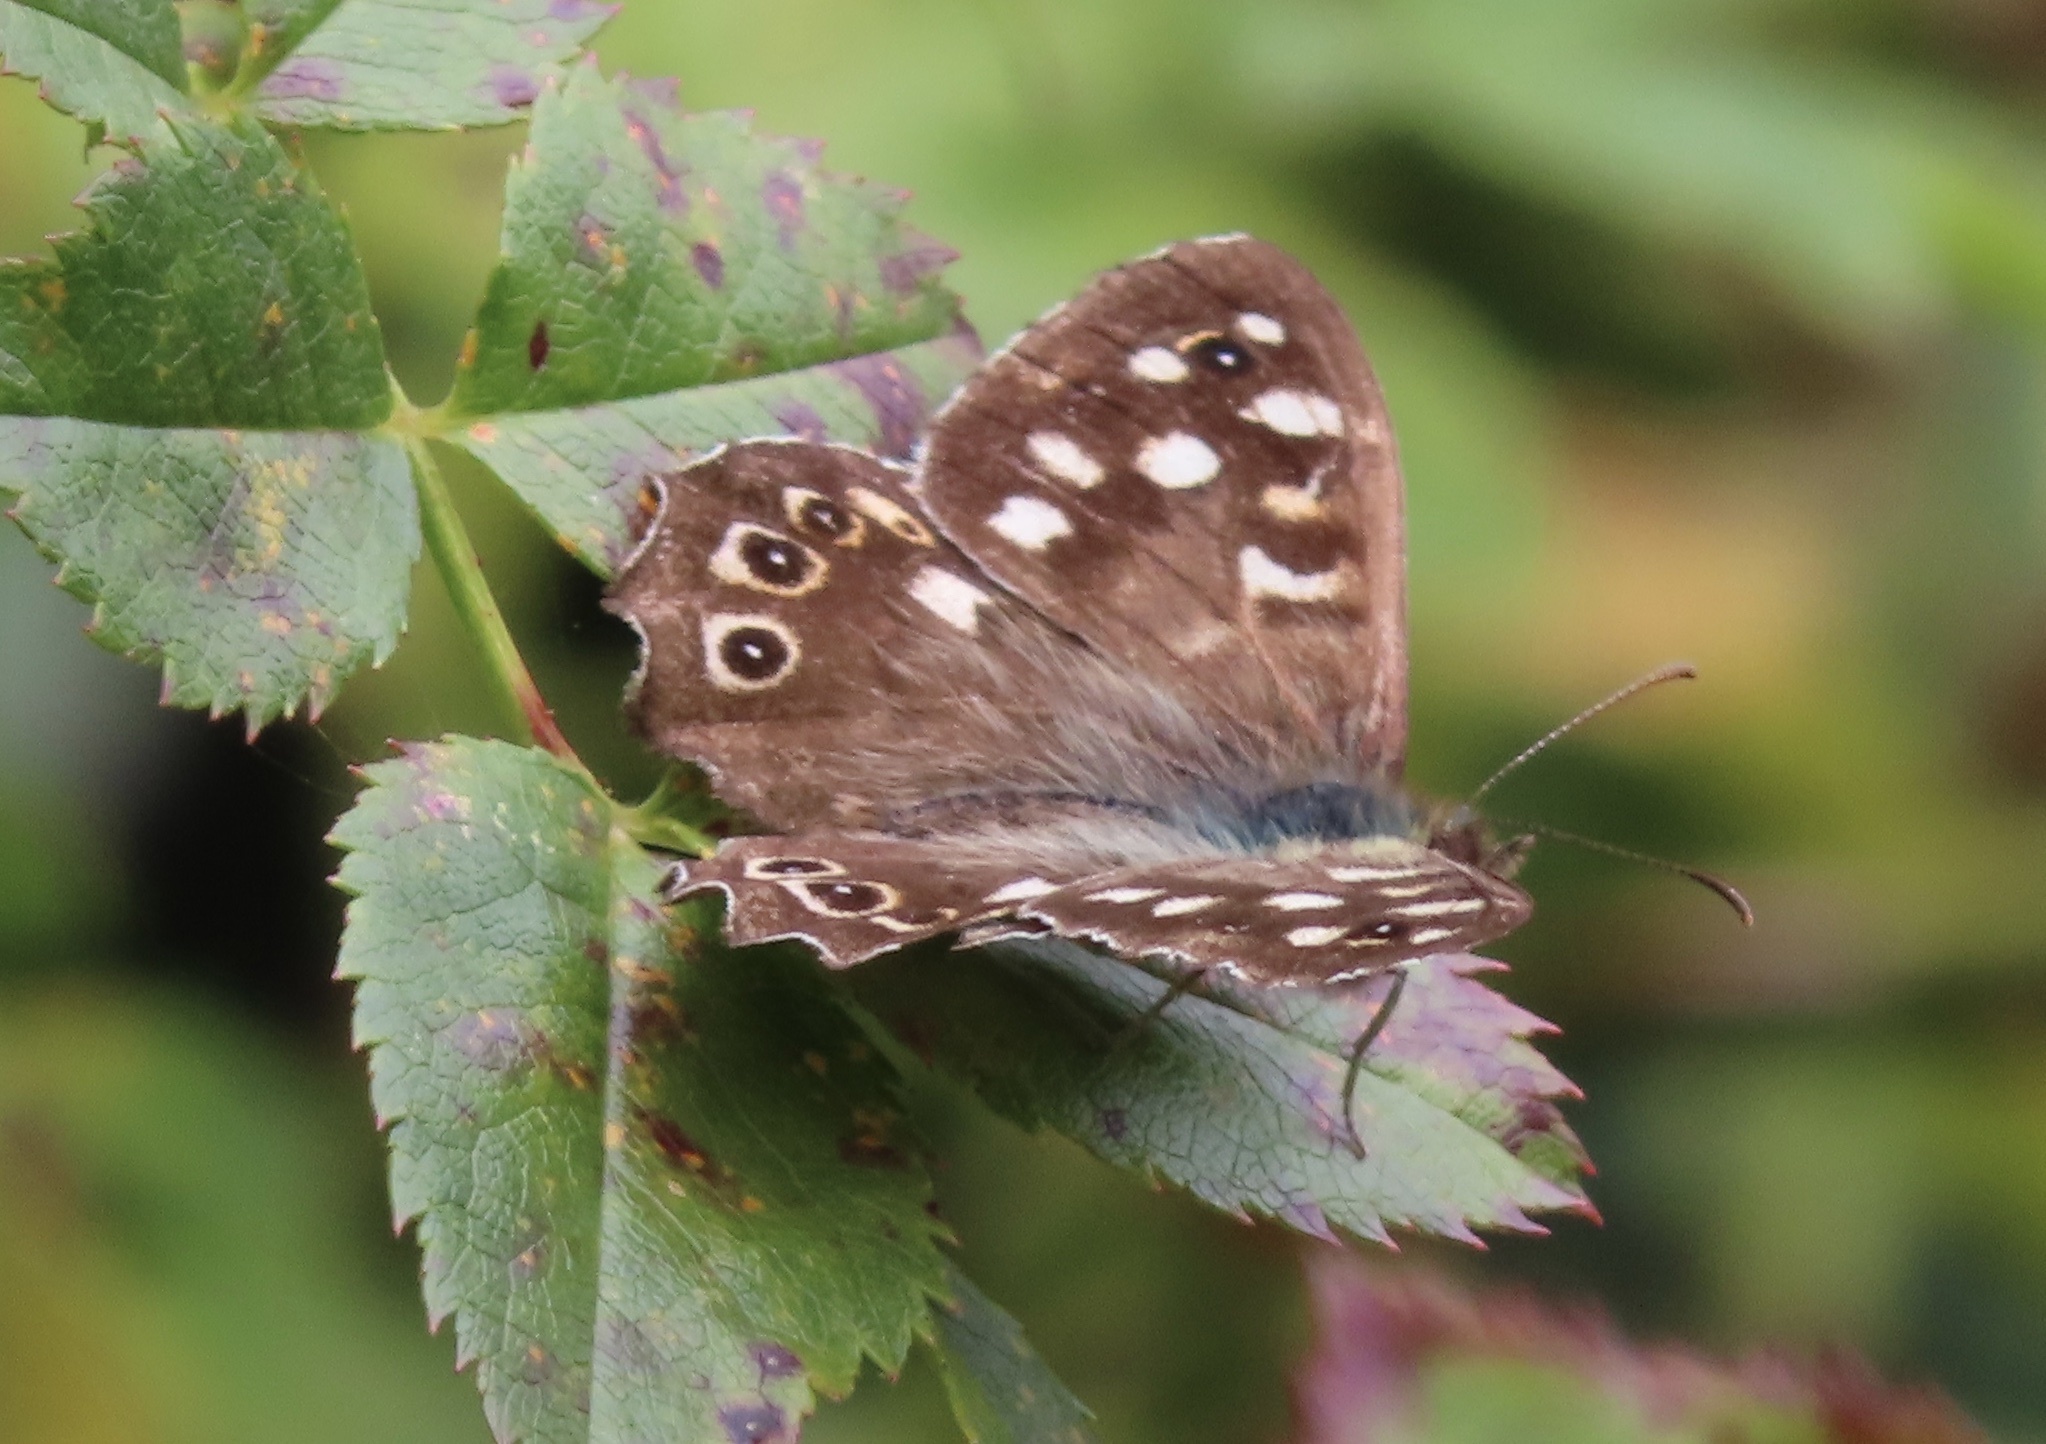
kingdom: Animalia
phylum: Arthropoda
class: Insecta
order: Lepidoptera
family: Nymphalidae
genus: Pararge
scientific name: Pararge aegeria
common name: Speckled wood
